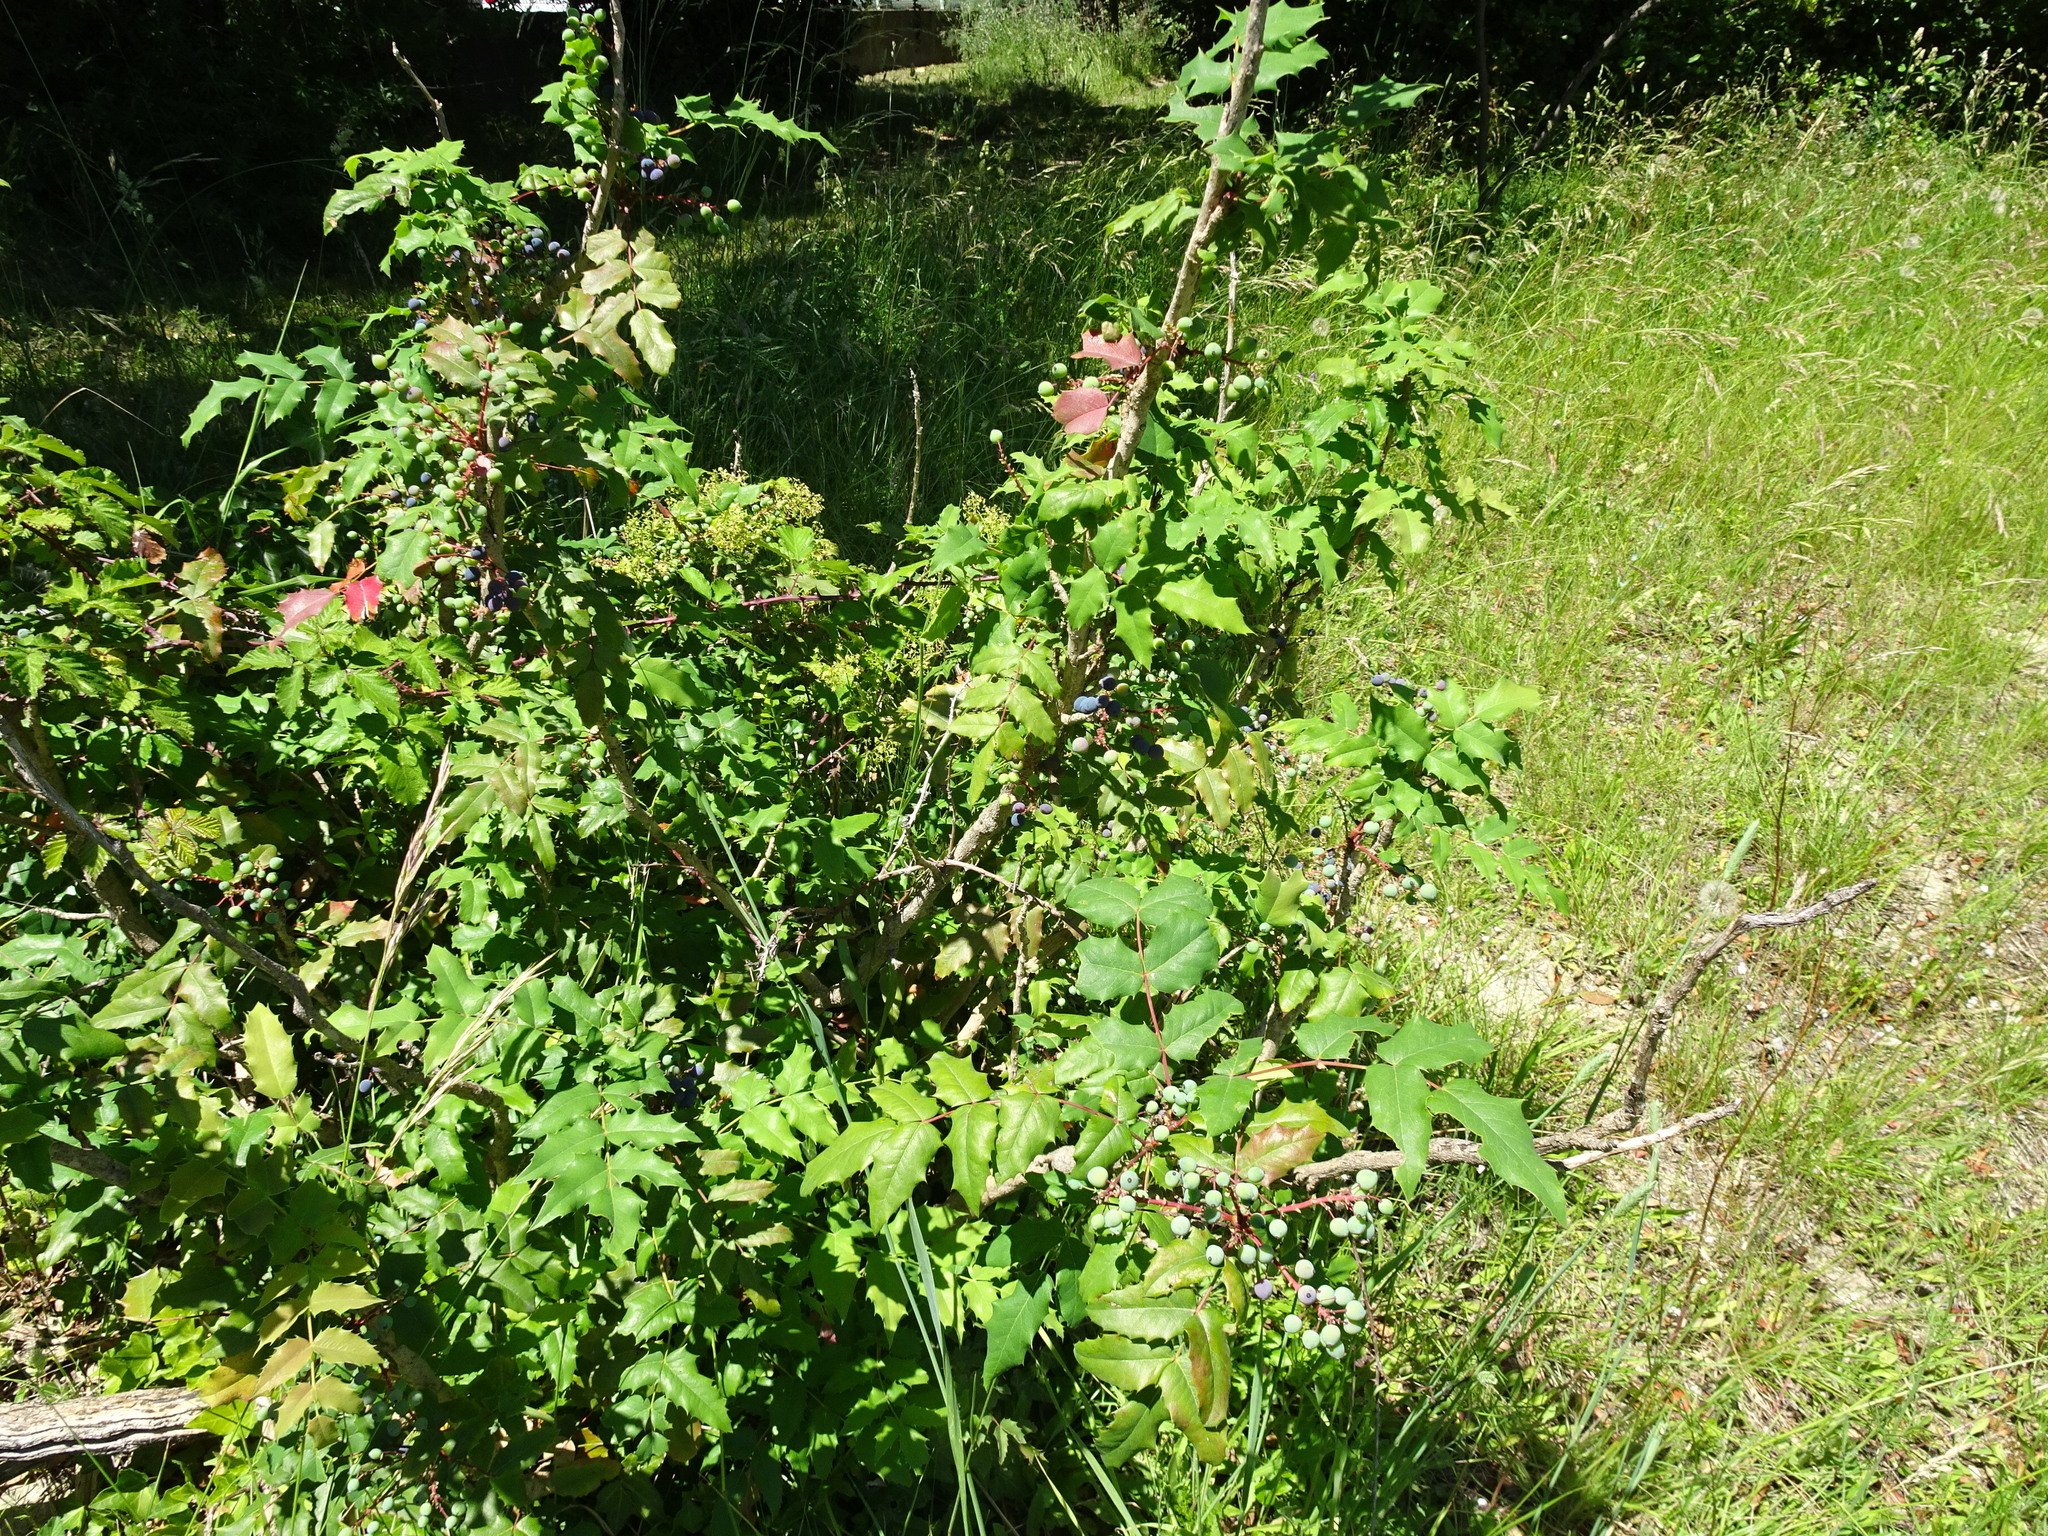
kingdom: Plantae
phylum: Tracheophyta
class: Magnoliopsida
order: Ranunculales
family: Berberidaceae
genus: Mahonia
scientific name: Mahonia aquifolium
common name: Oregon-grape
